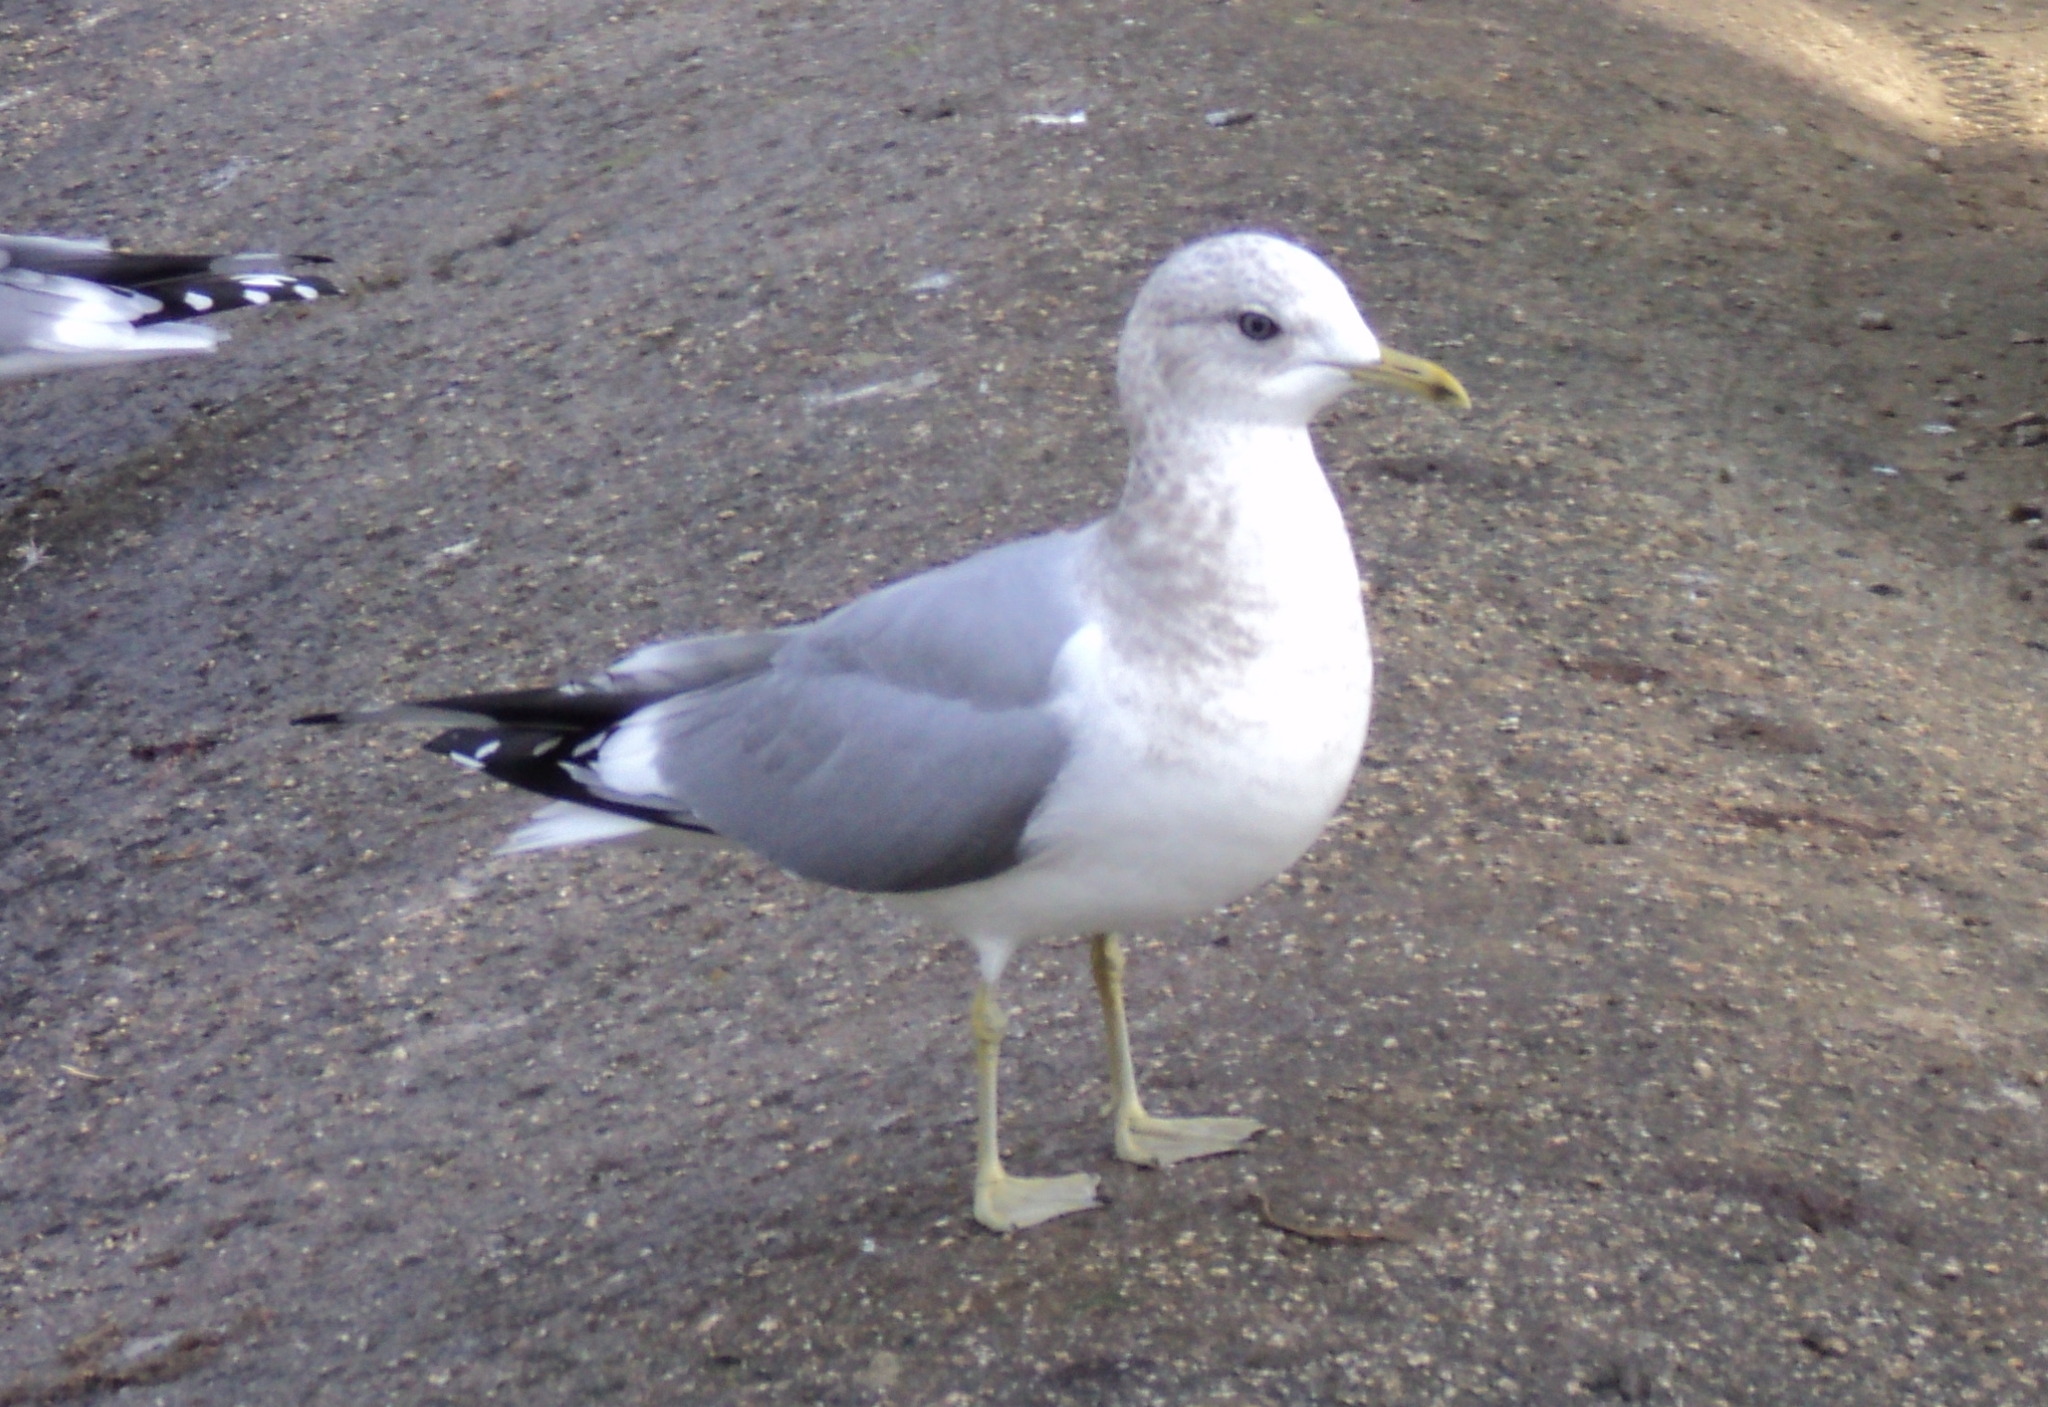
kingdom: Animalia
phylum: Chordata
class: Aves
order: Charadriiformes
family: Laridae
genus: Larus
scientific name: Larus brachyrhynchus
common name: Short-billed gull
